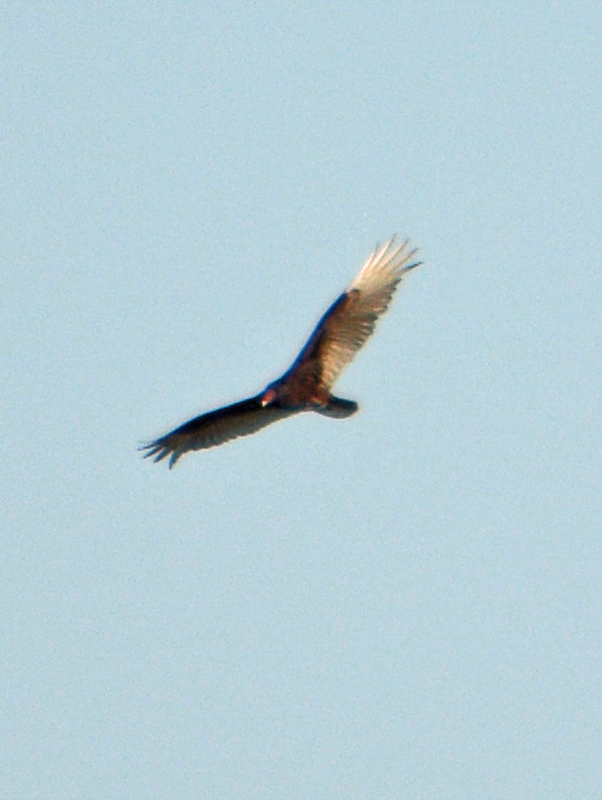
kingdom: Animalia
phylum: Chordata
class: Aves
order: Accipitriformes
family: Cathartidae
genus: Cathartes
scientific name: Cathartes aura
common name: Turkey vulture
